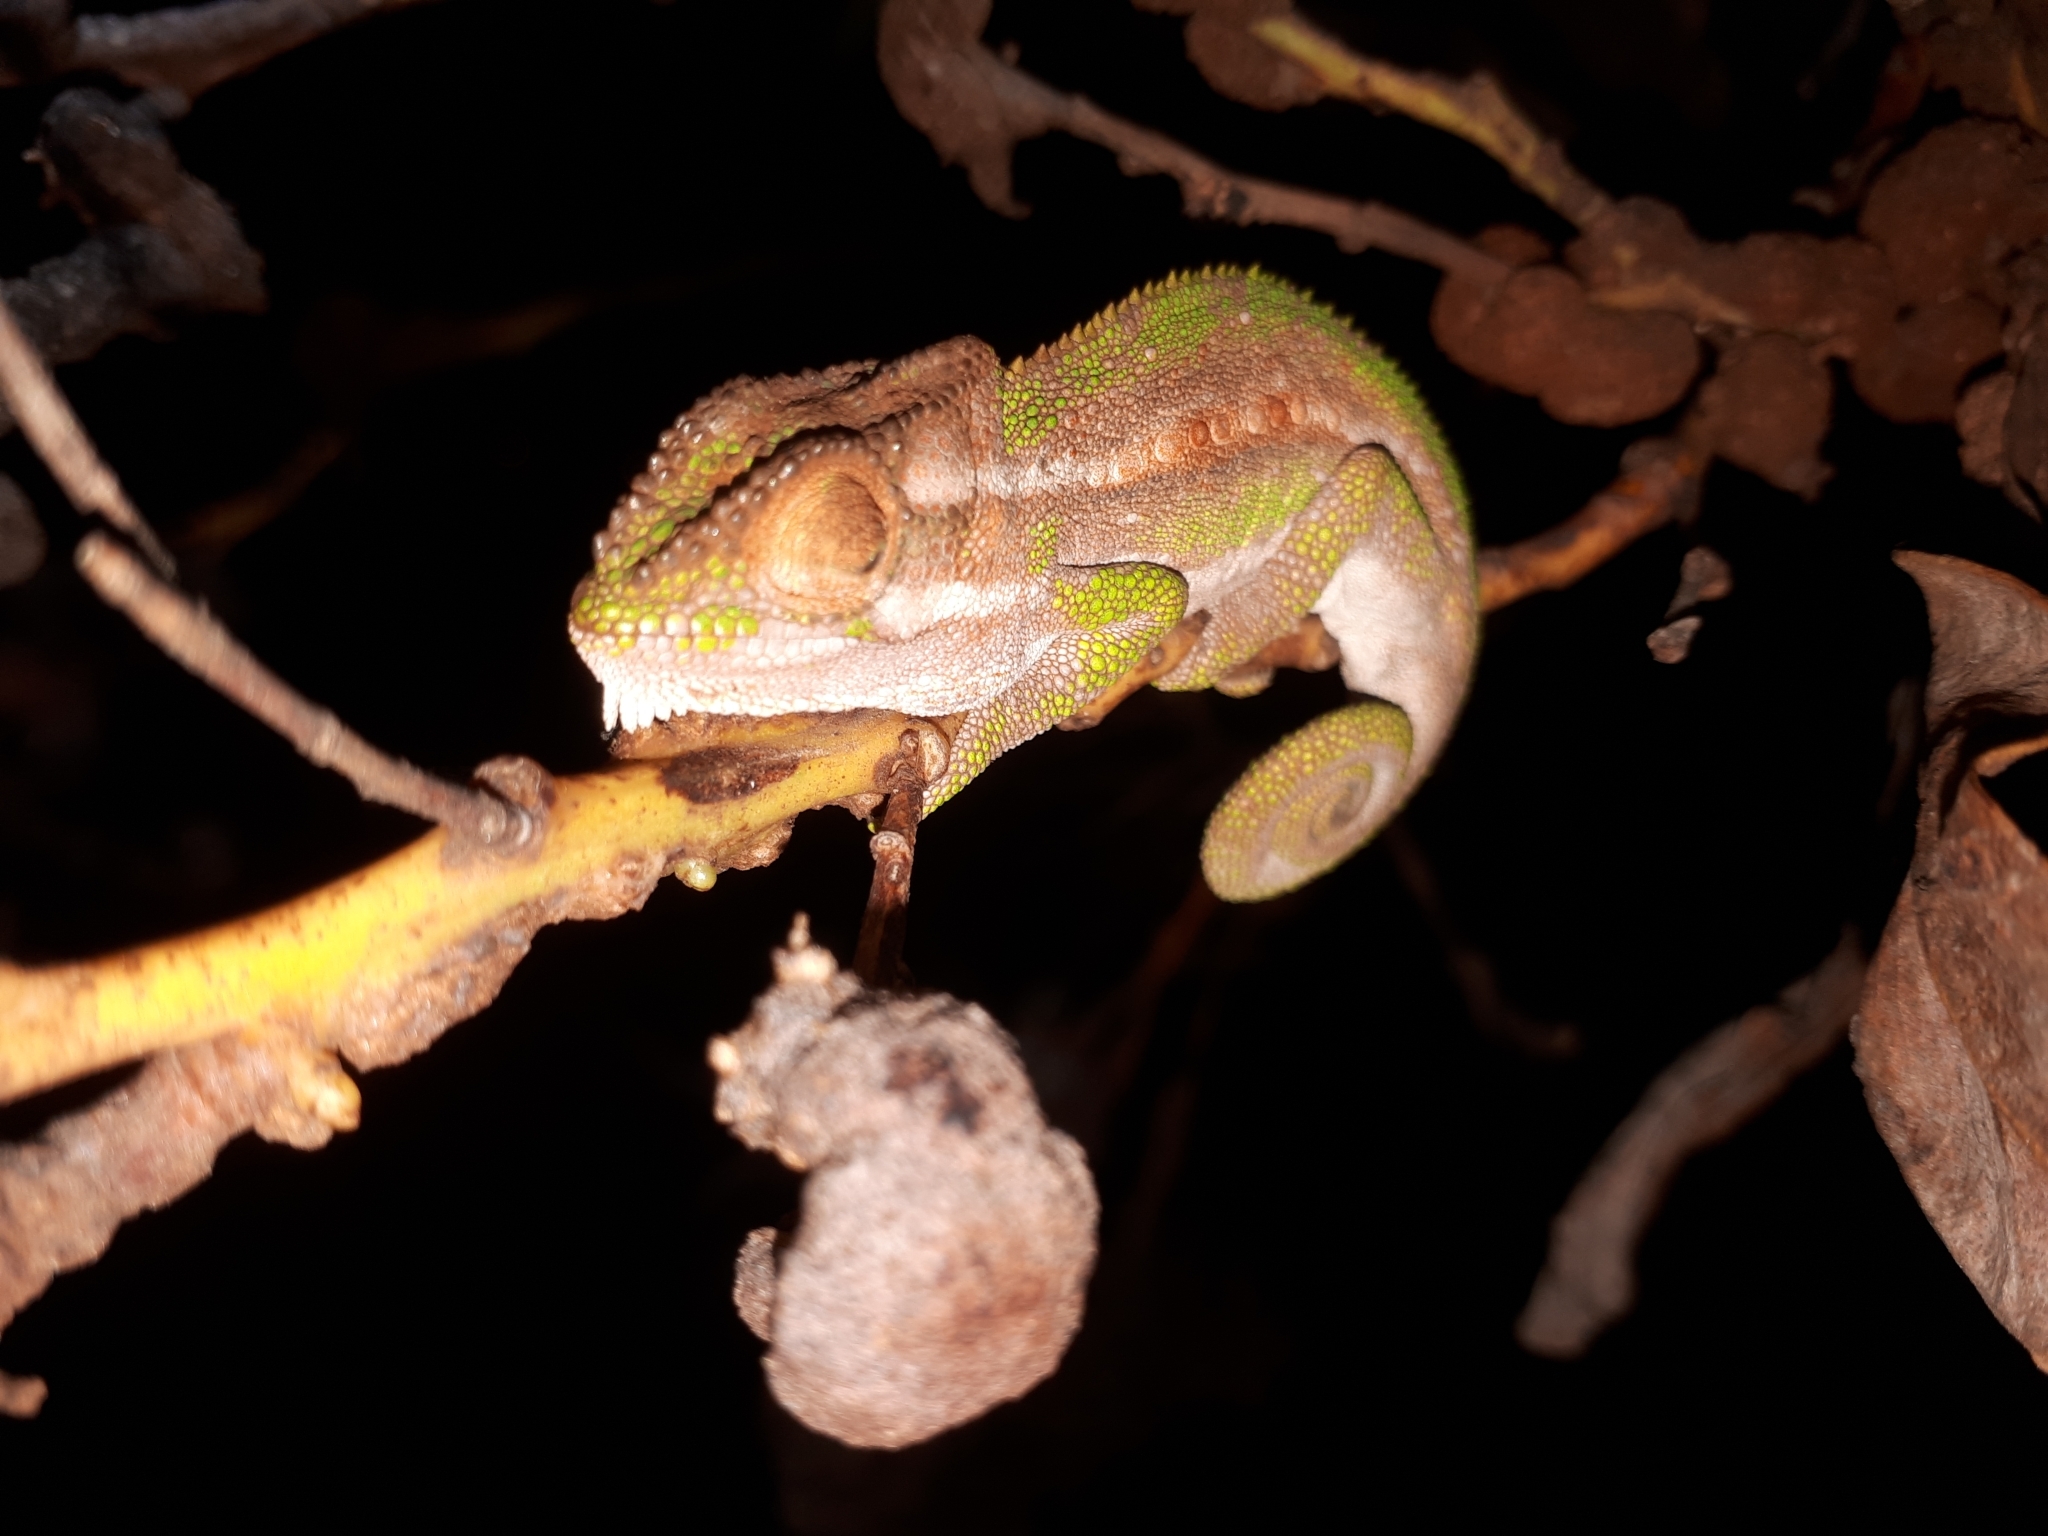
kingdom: Animalia
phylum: Chordata
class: Squamata
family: Chamaeleonidae
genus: Bradypodion
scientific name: Bradypodion pumilum
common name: Cape dwarf chameleon
